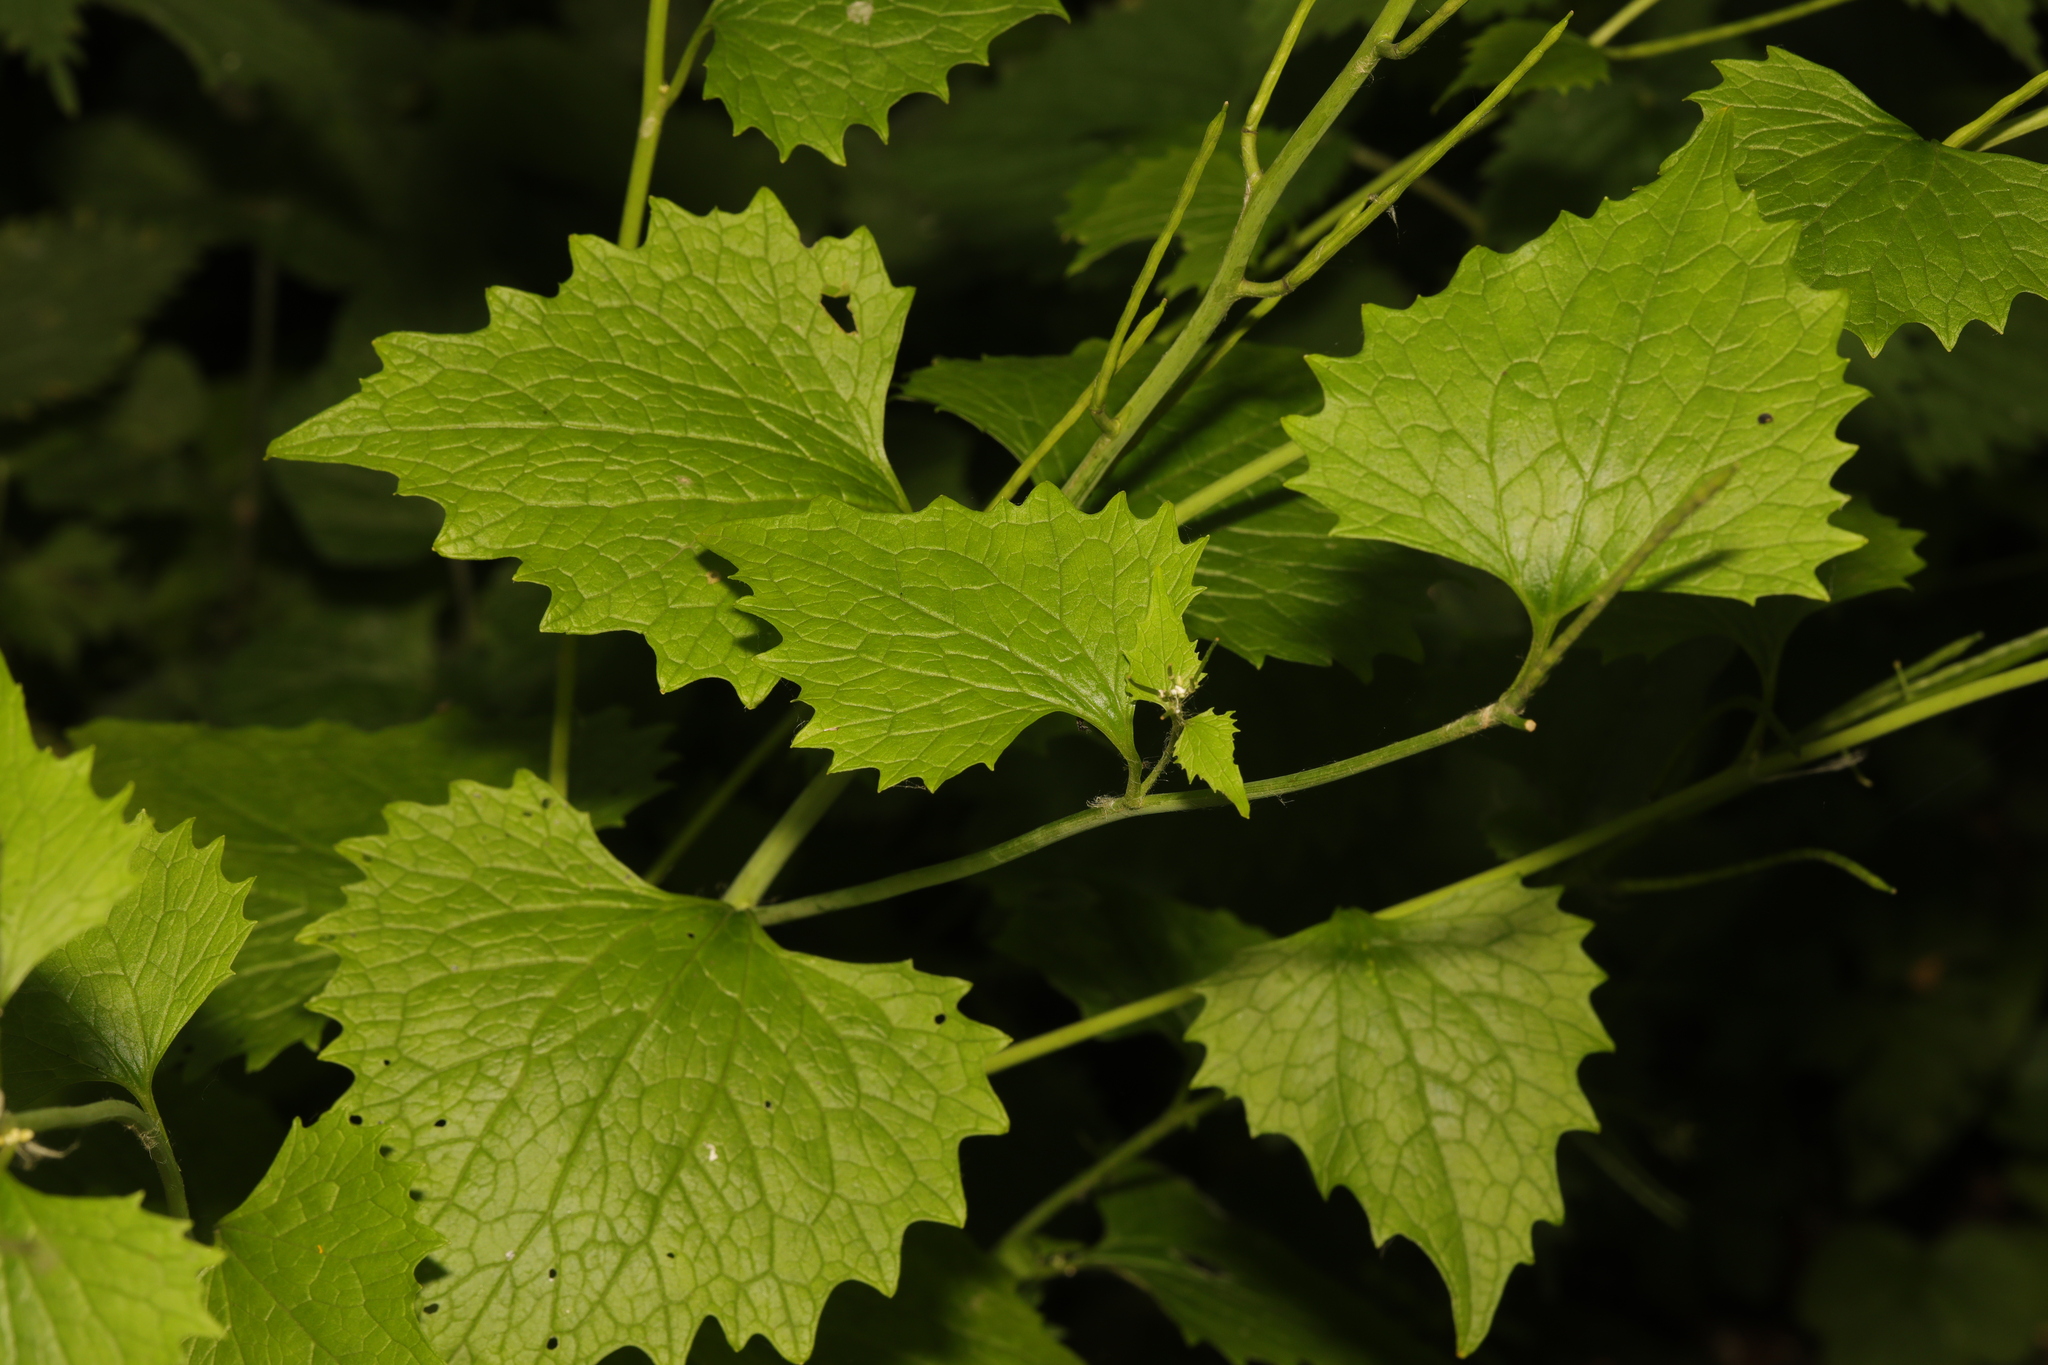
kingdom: Plantae
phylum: Tracheophyta
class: Magnoliopsida
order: Brassicales
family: Brassicaceae
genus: Alliaria
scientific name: Alliaria petiolata
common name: Garlic mustard
